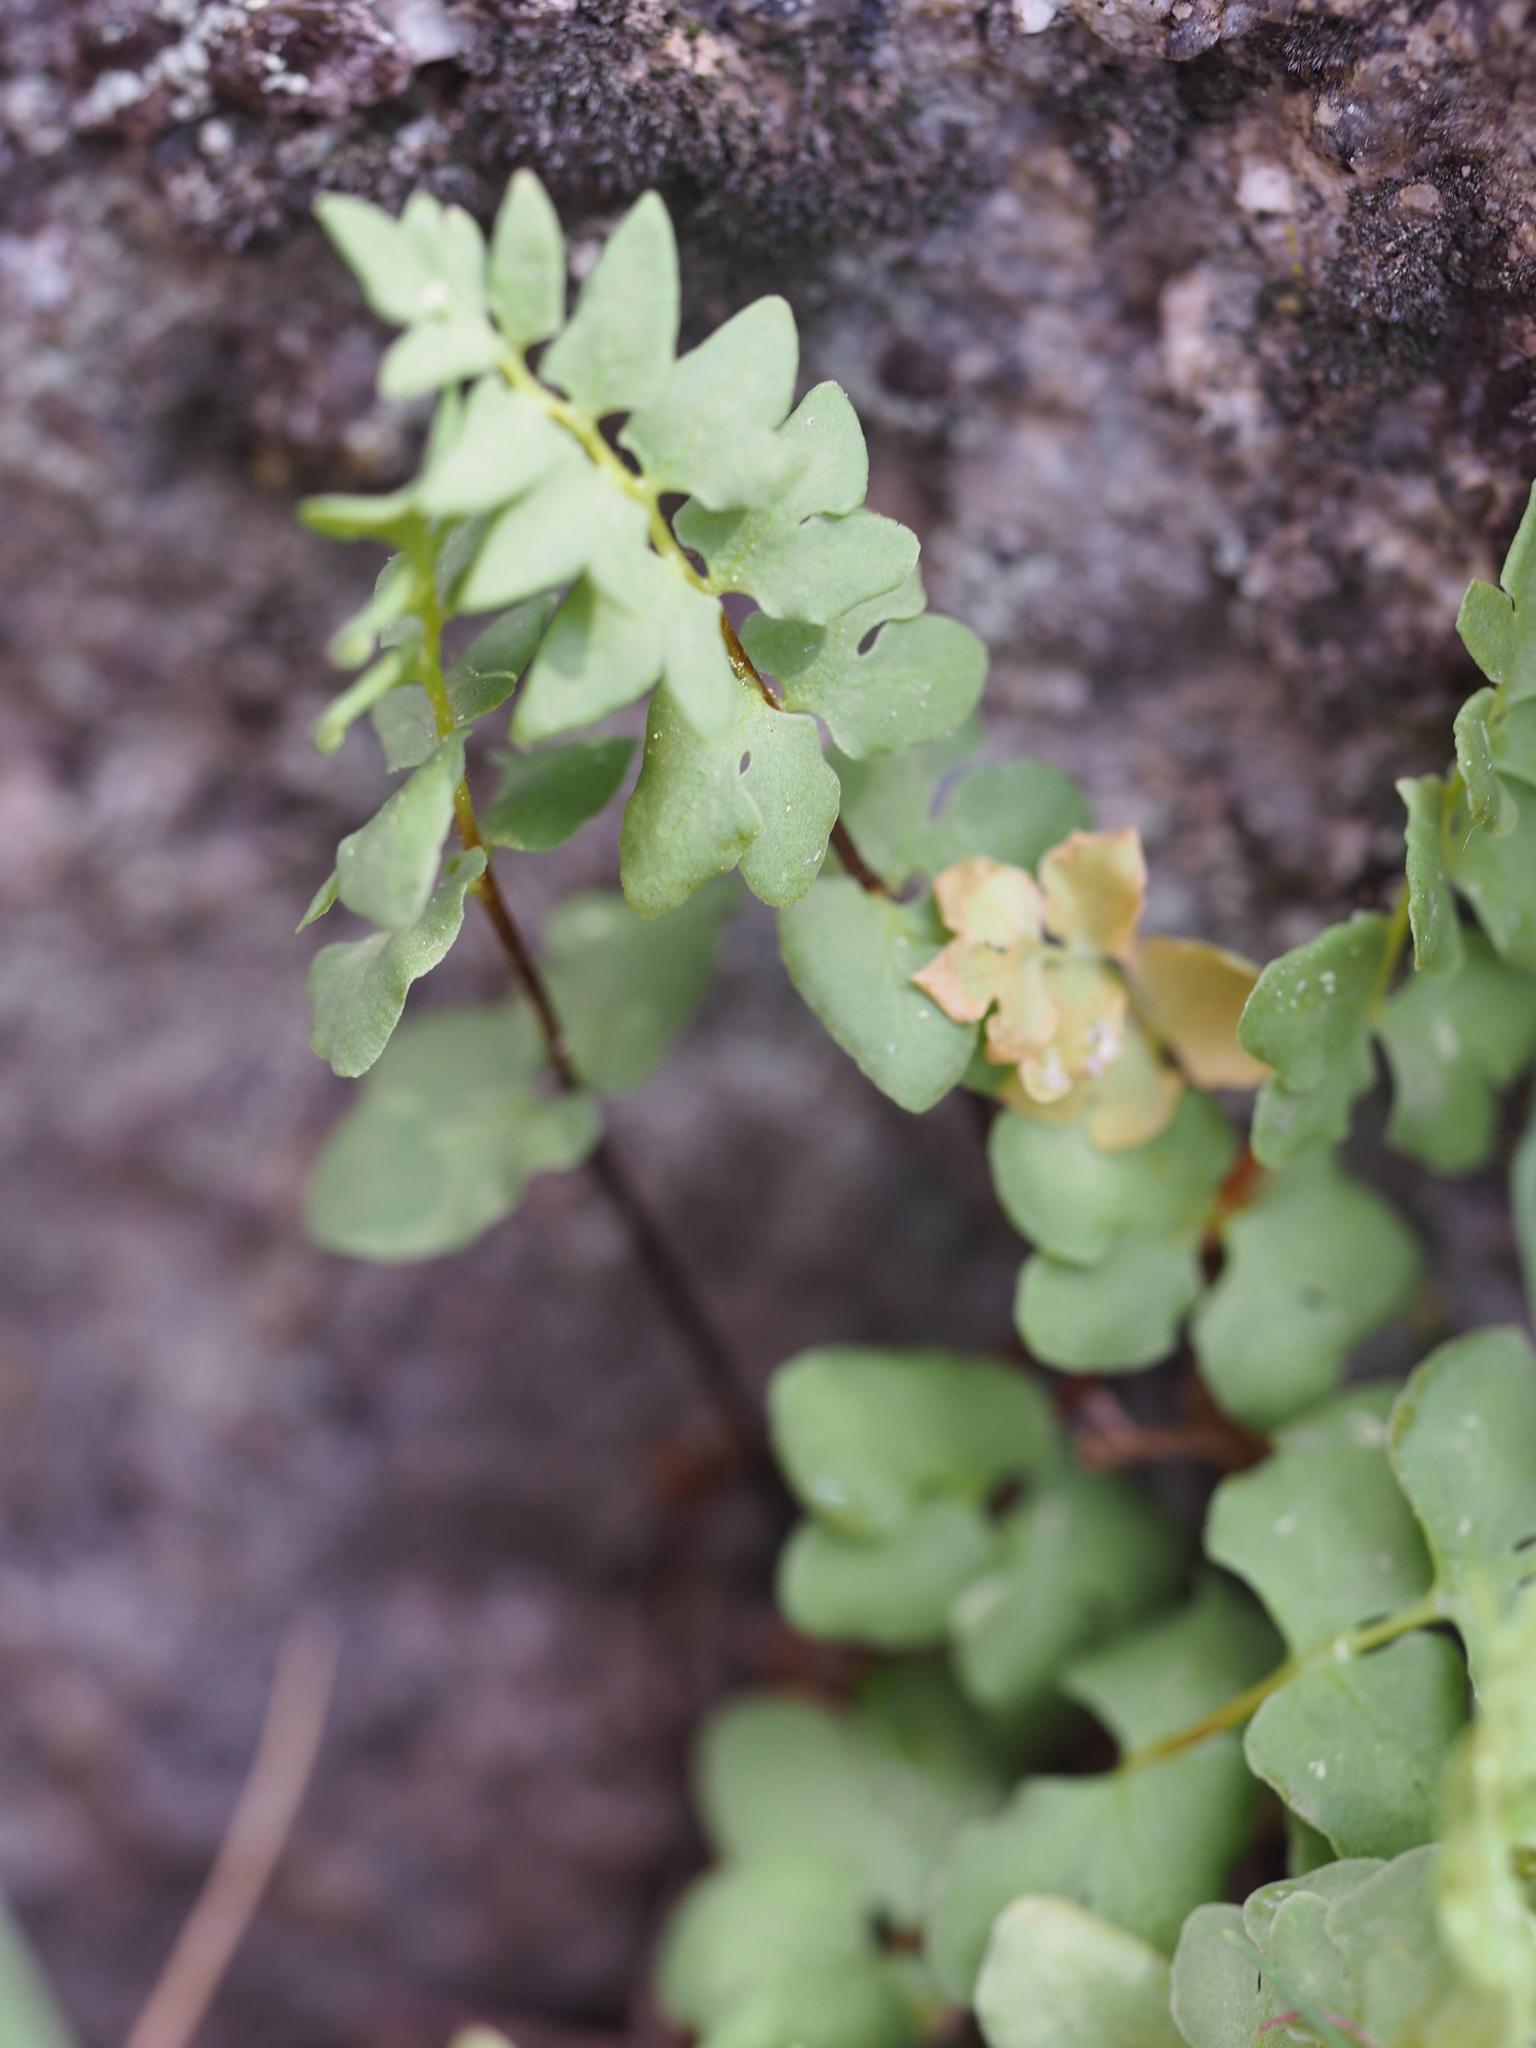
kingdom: Plantae
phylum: Tracheophyta
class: Polypodiopsida
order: Polypodiales
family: Pteridaceae
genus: Pellaea
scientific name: Pellaea breweri
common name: Brewer's cliffbrake
